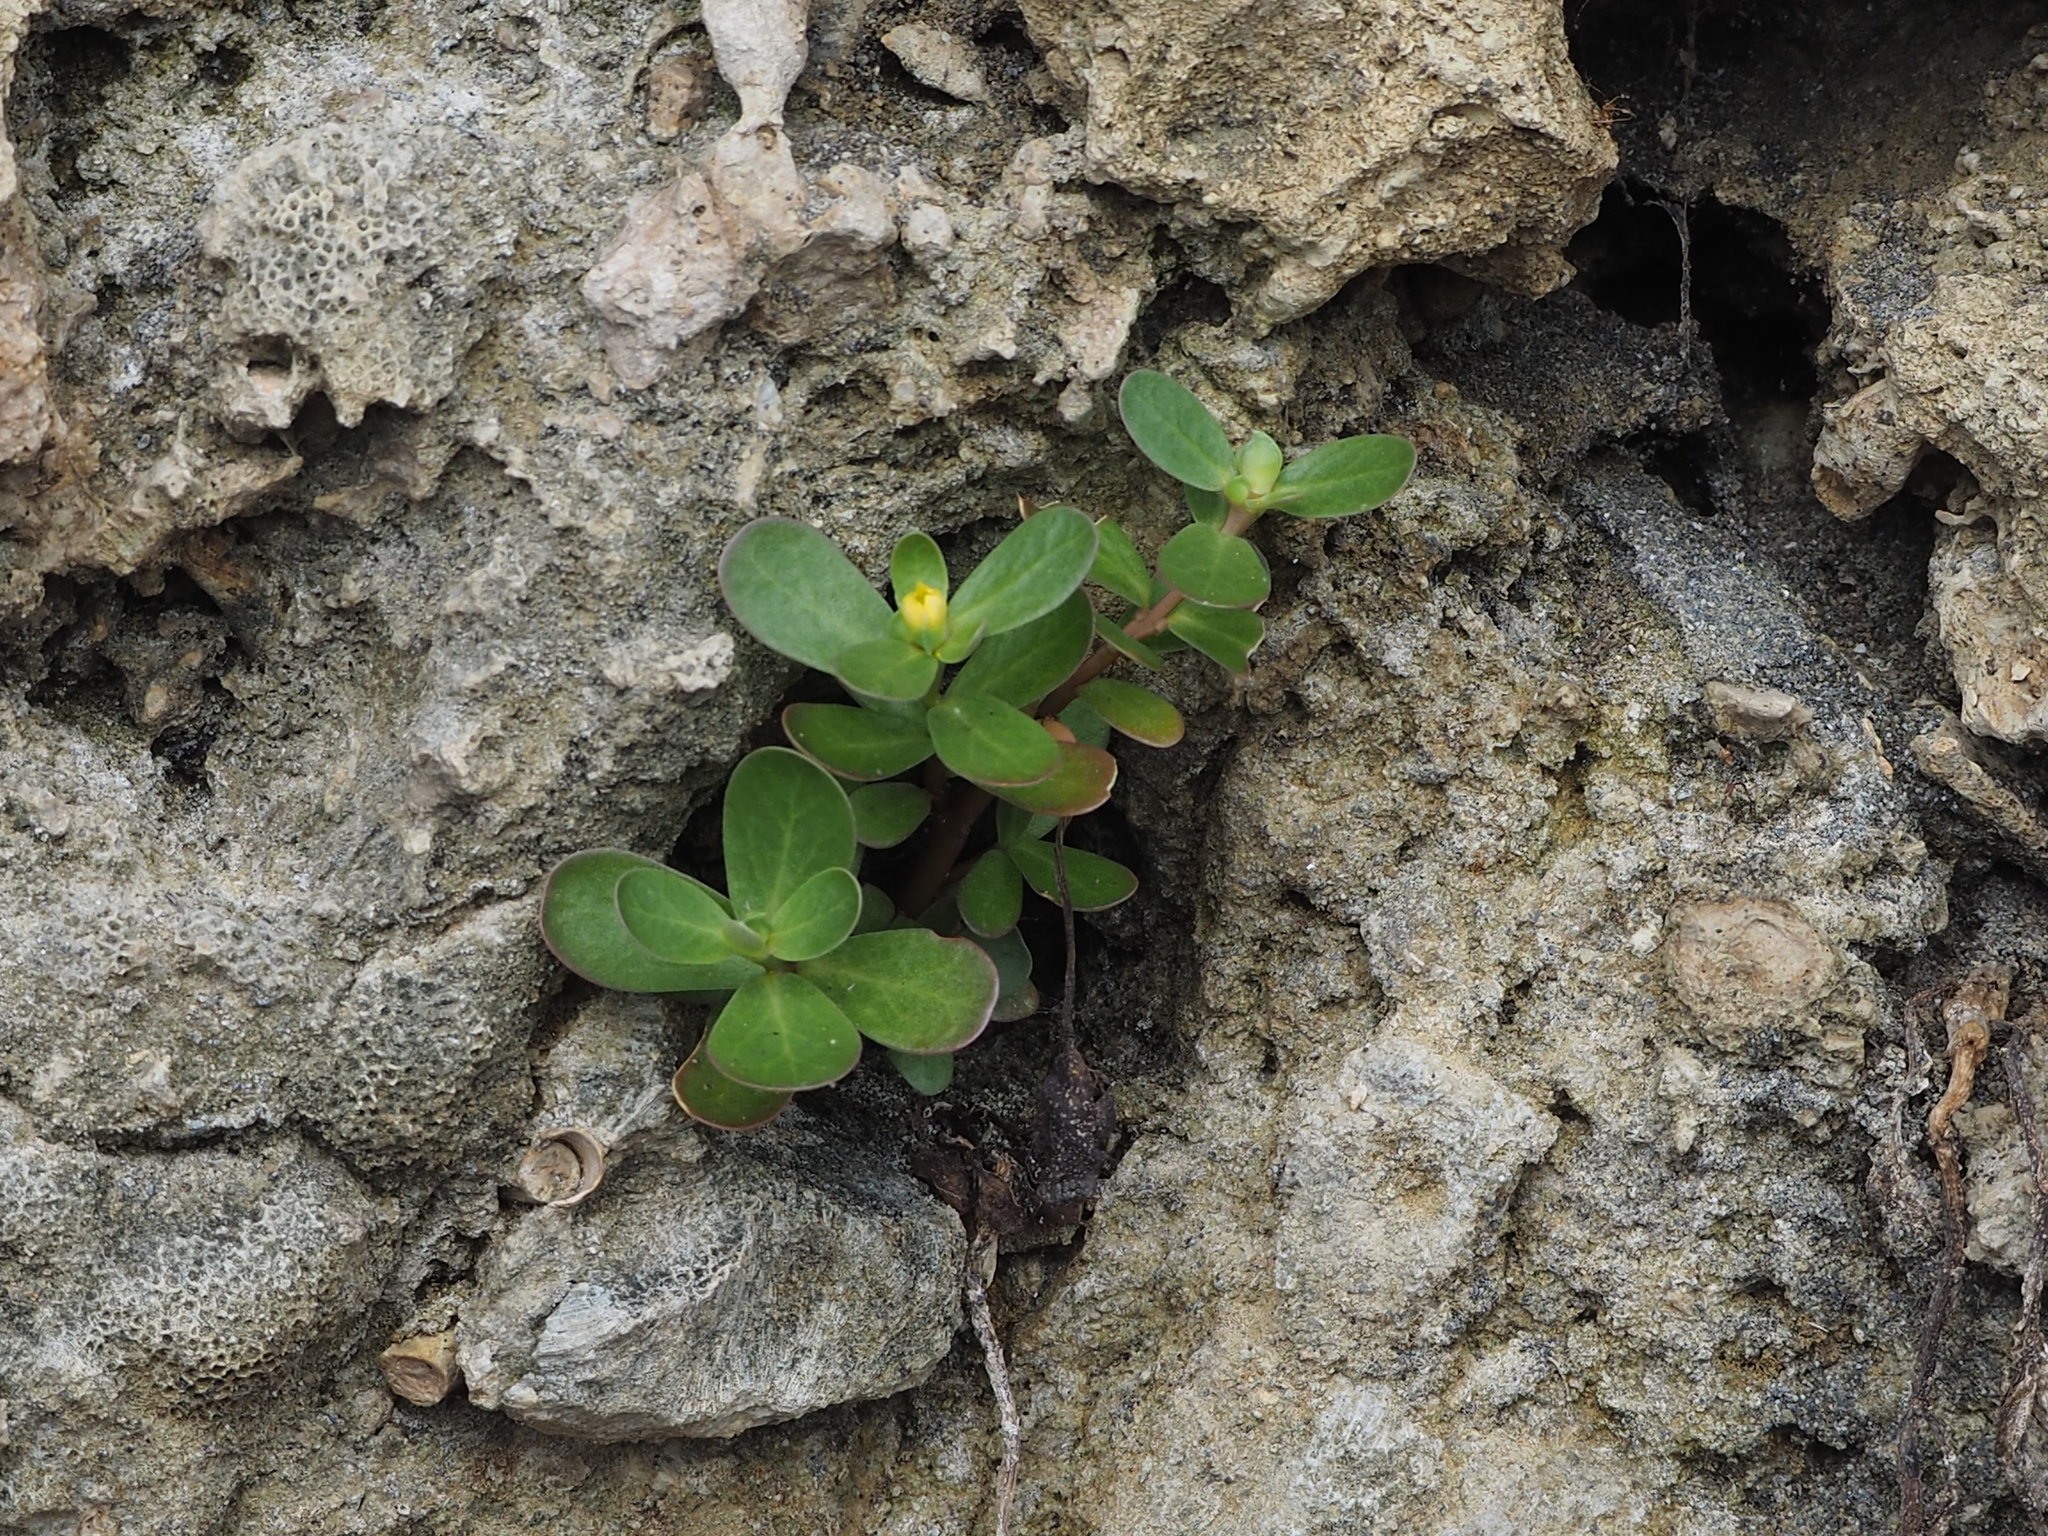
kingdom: Plantae
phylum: Tracheophyta
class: Magnoliopsida
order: Caryophyllales
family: Portulacaceae
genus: Portulaca
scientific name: Portulaca oleracea
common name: Common purslane
